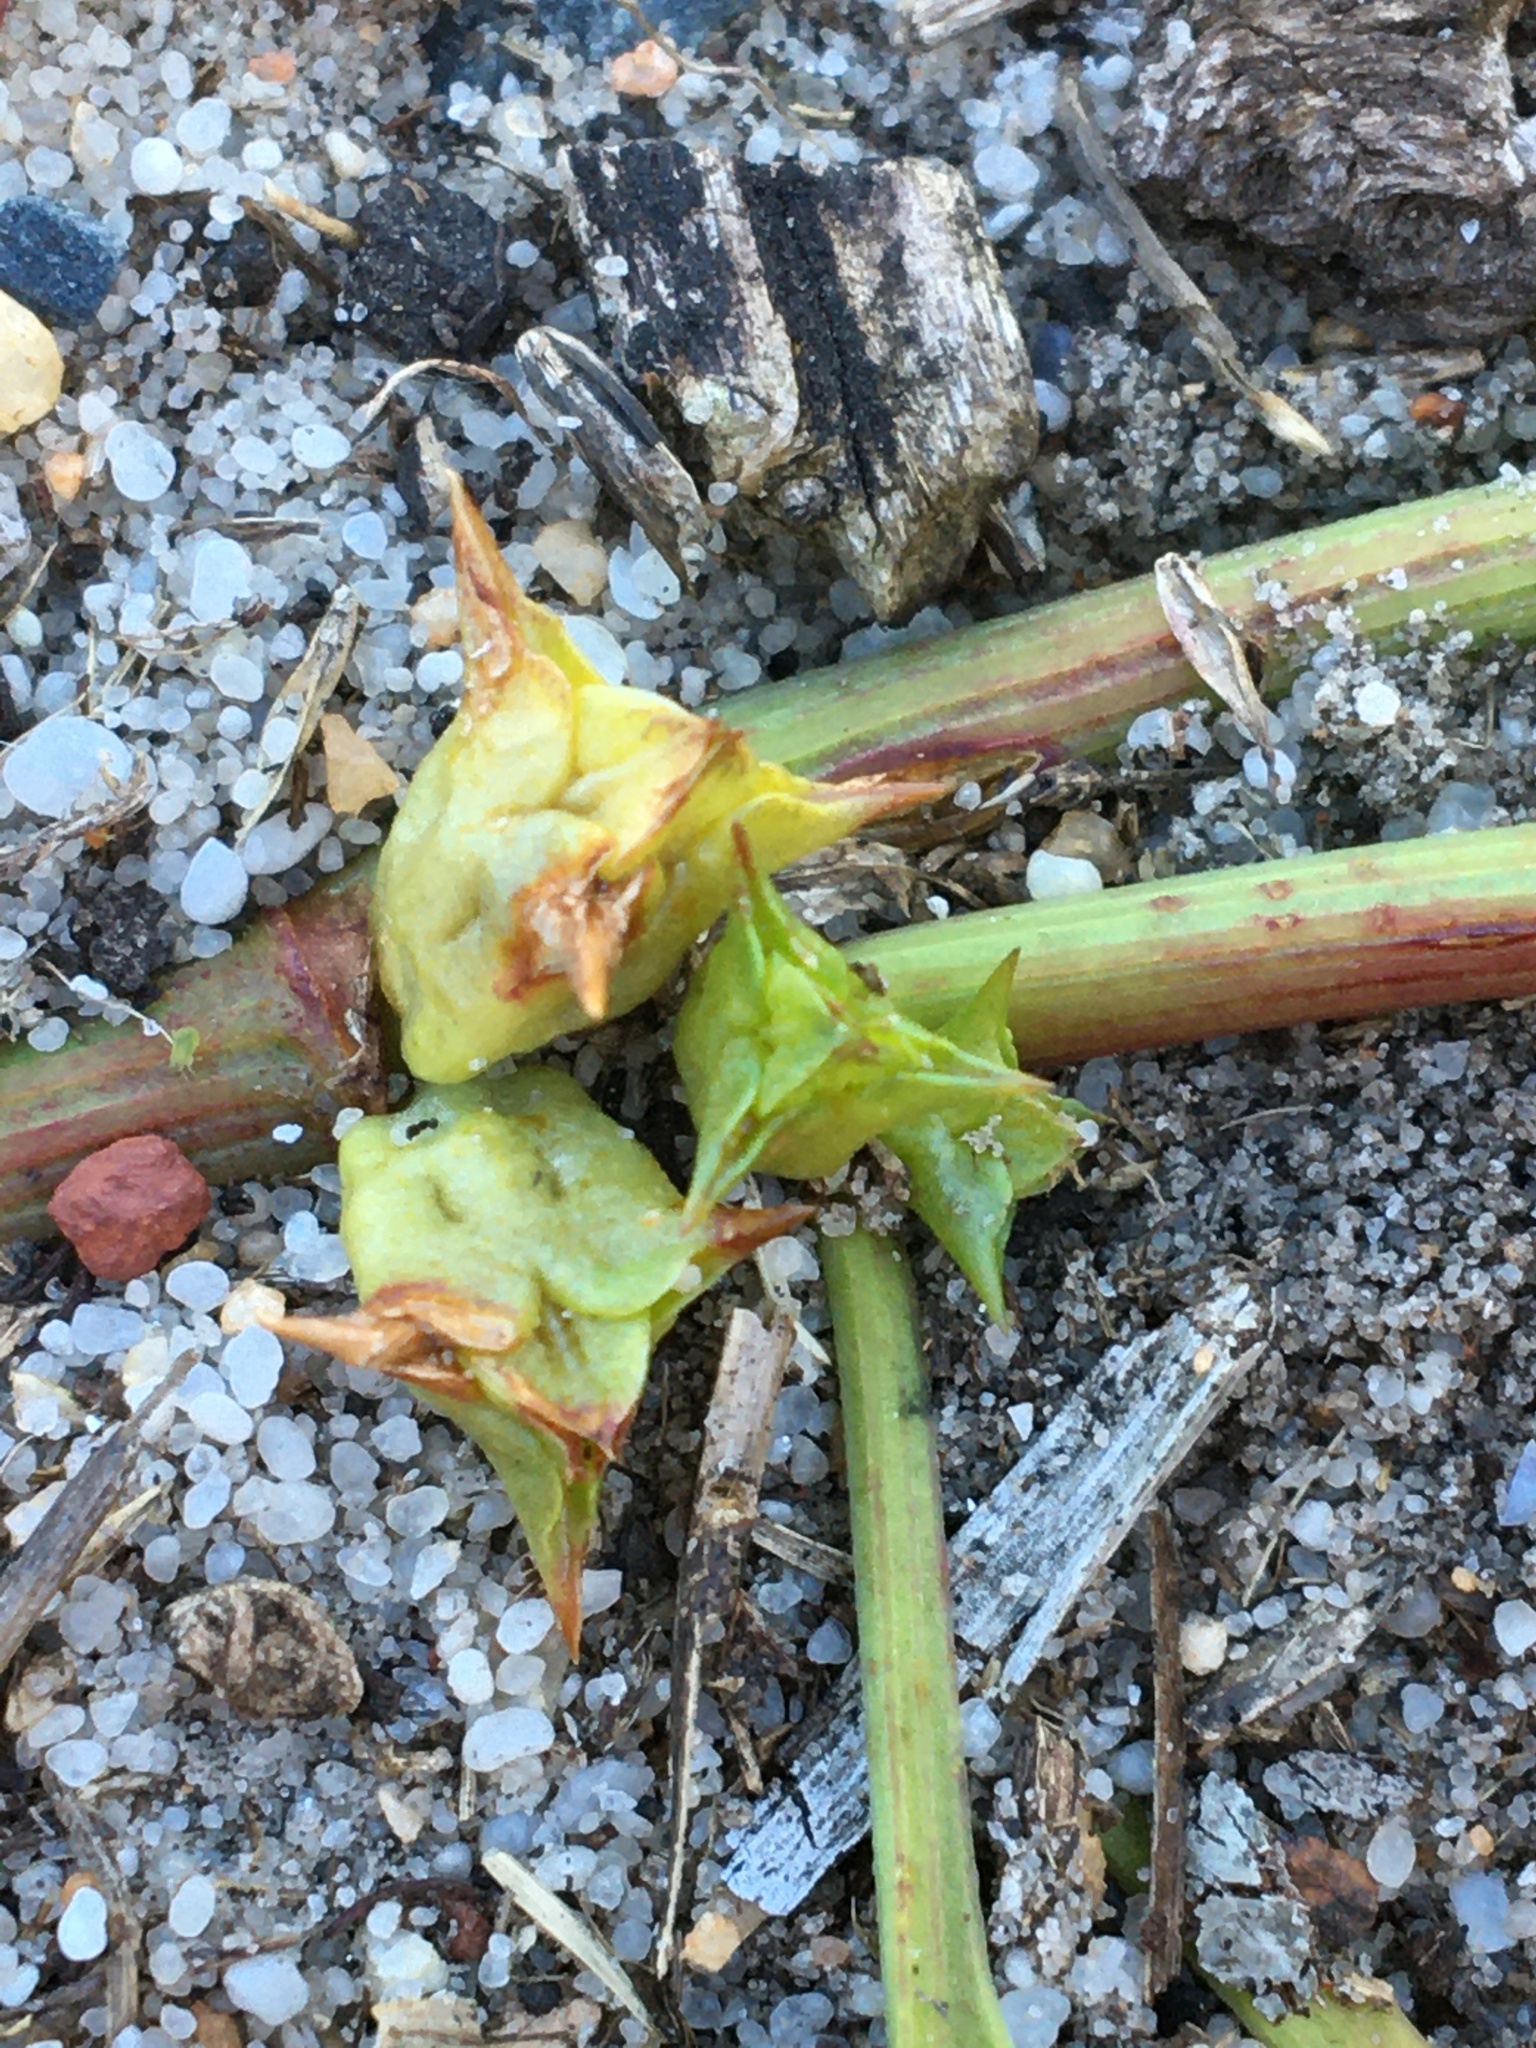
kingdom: Plantae
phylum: Tracheophyta
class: Magnoliopsida
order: Caryophyllales
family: Polygonaceae
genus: Rumex
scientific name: Rumex hypogaeus
